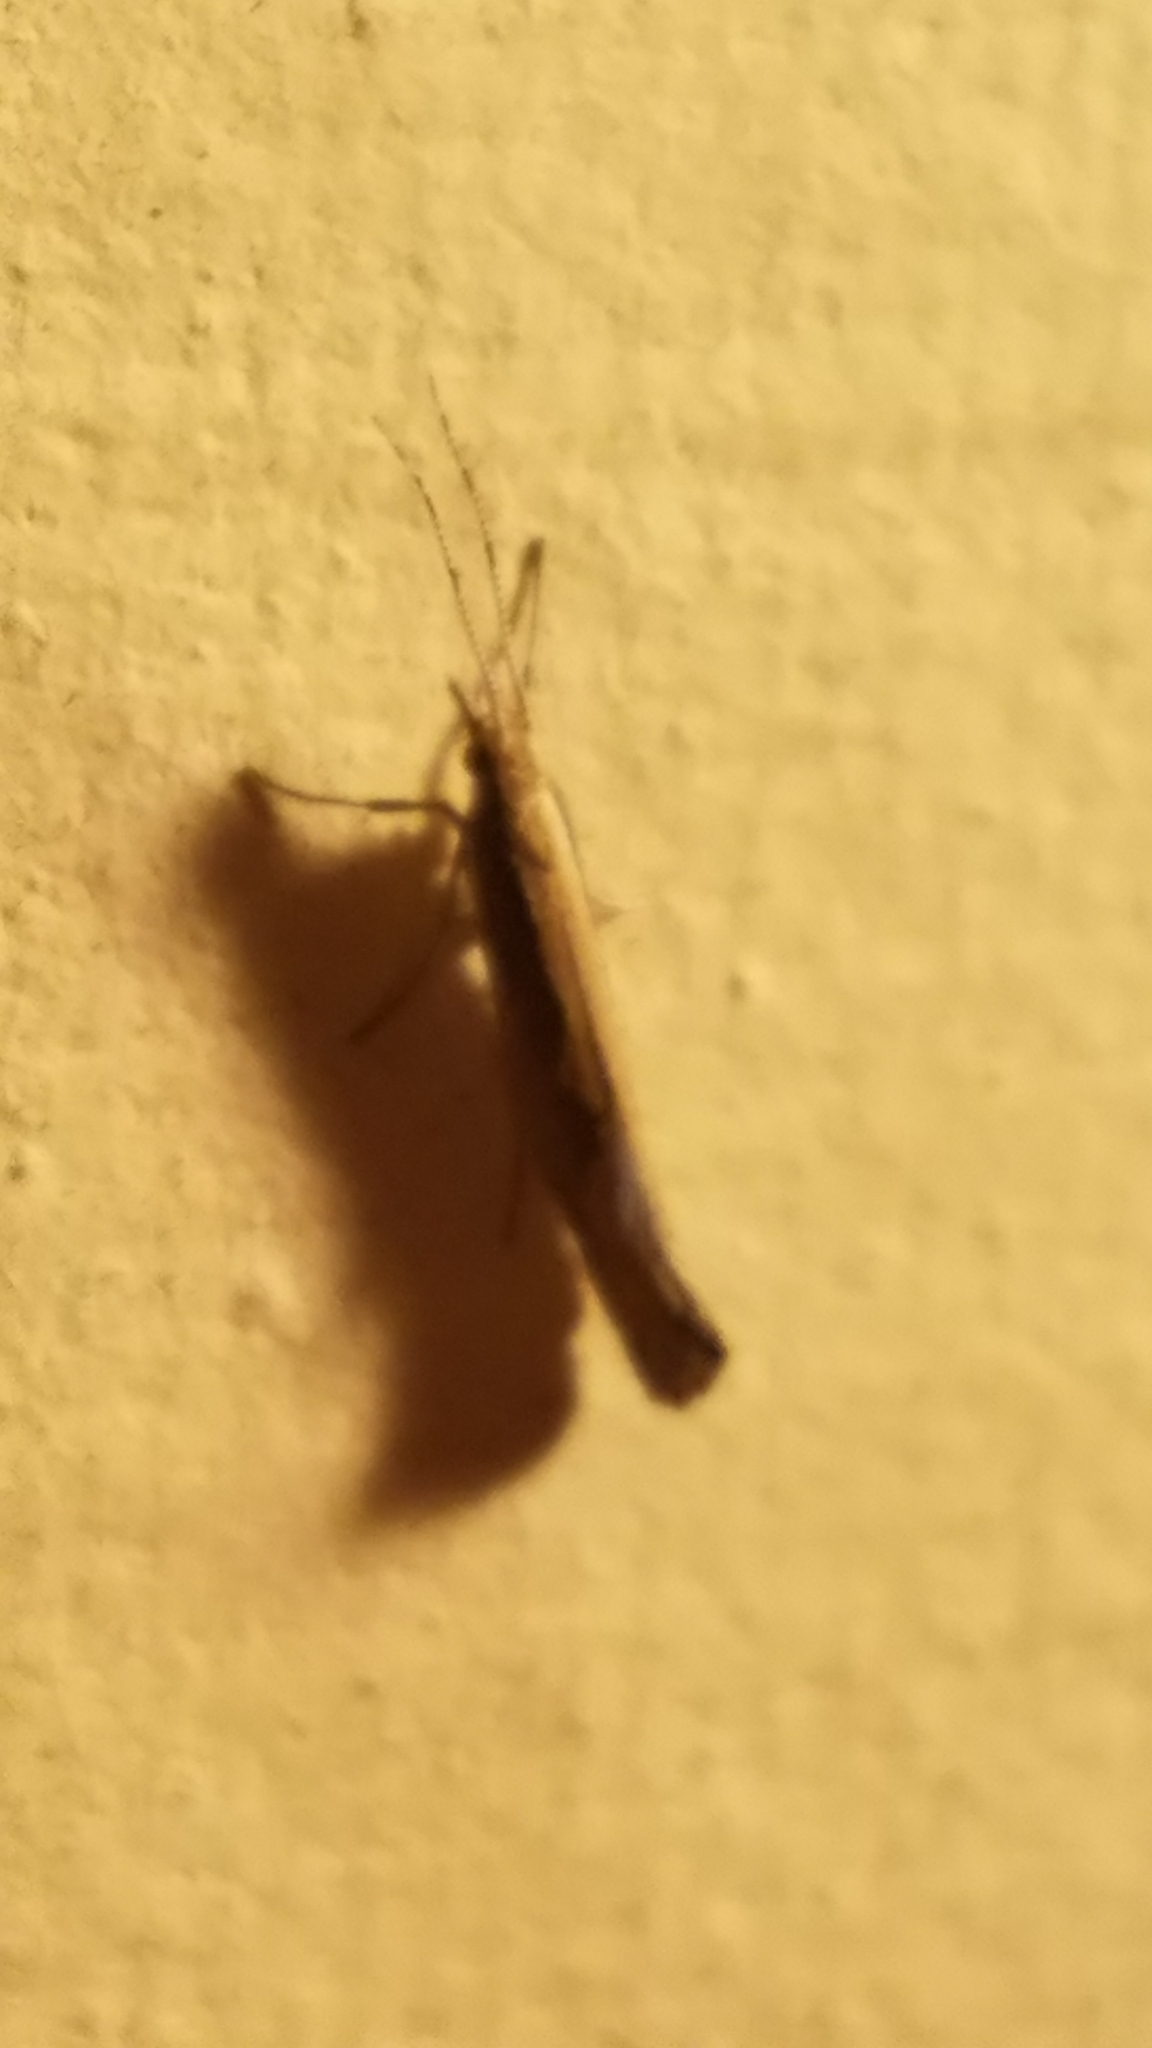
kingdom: Animalia
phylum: Arthropoda
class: Insecta
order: Lepidoptera
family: Plutellidae
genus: Plutella
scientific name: Plutella xylostella
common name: Diamond-back moth
